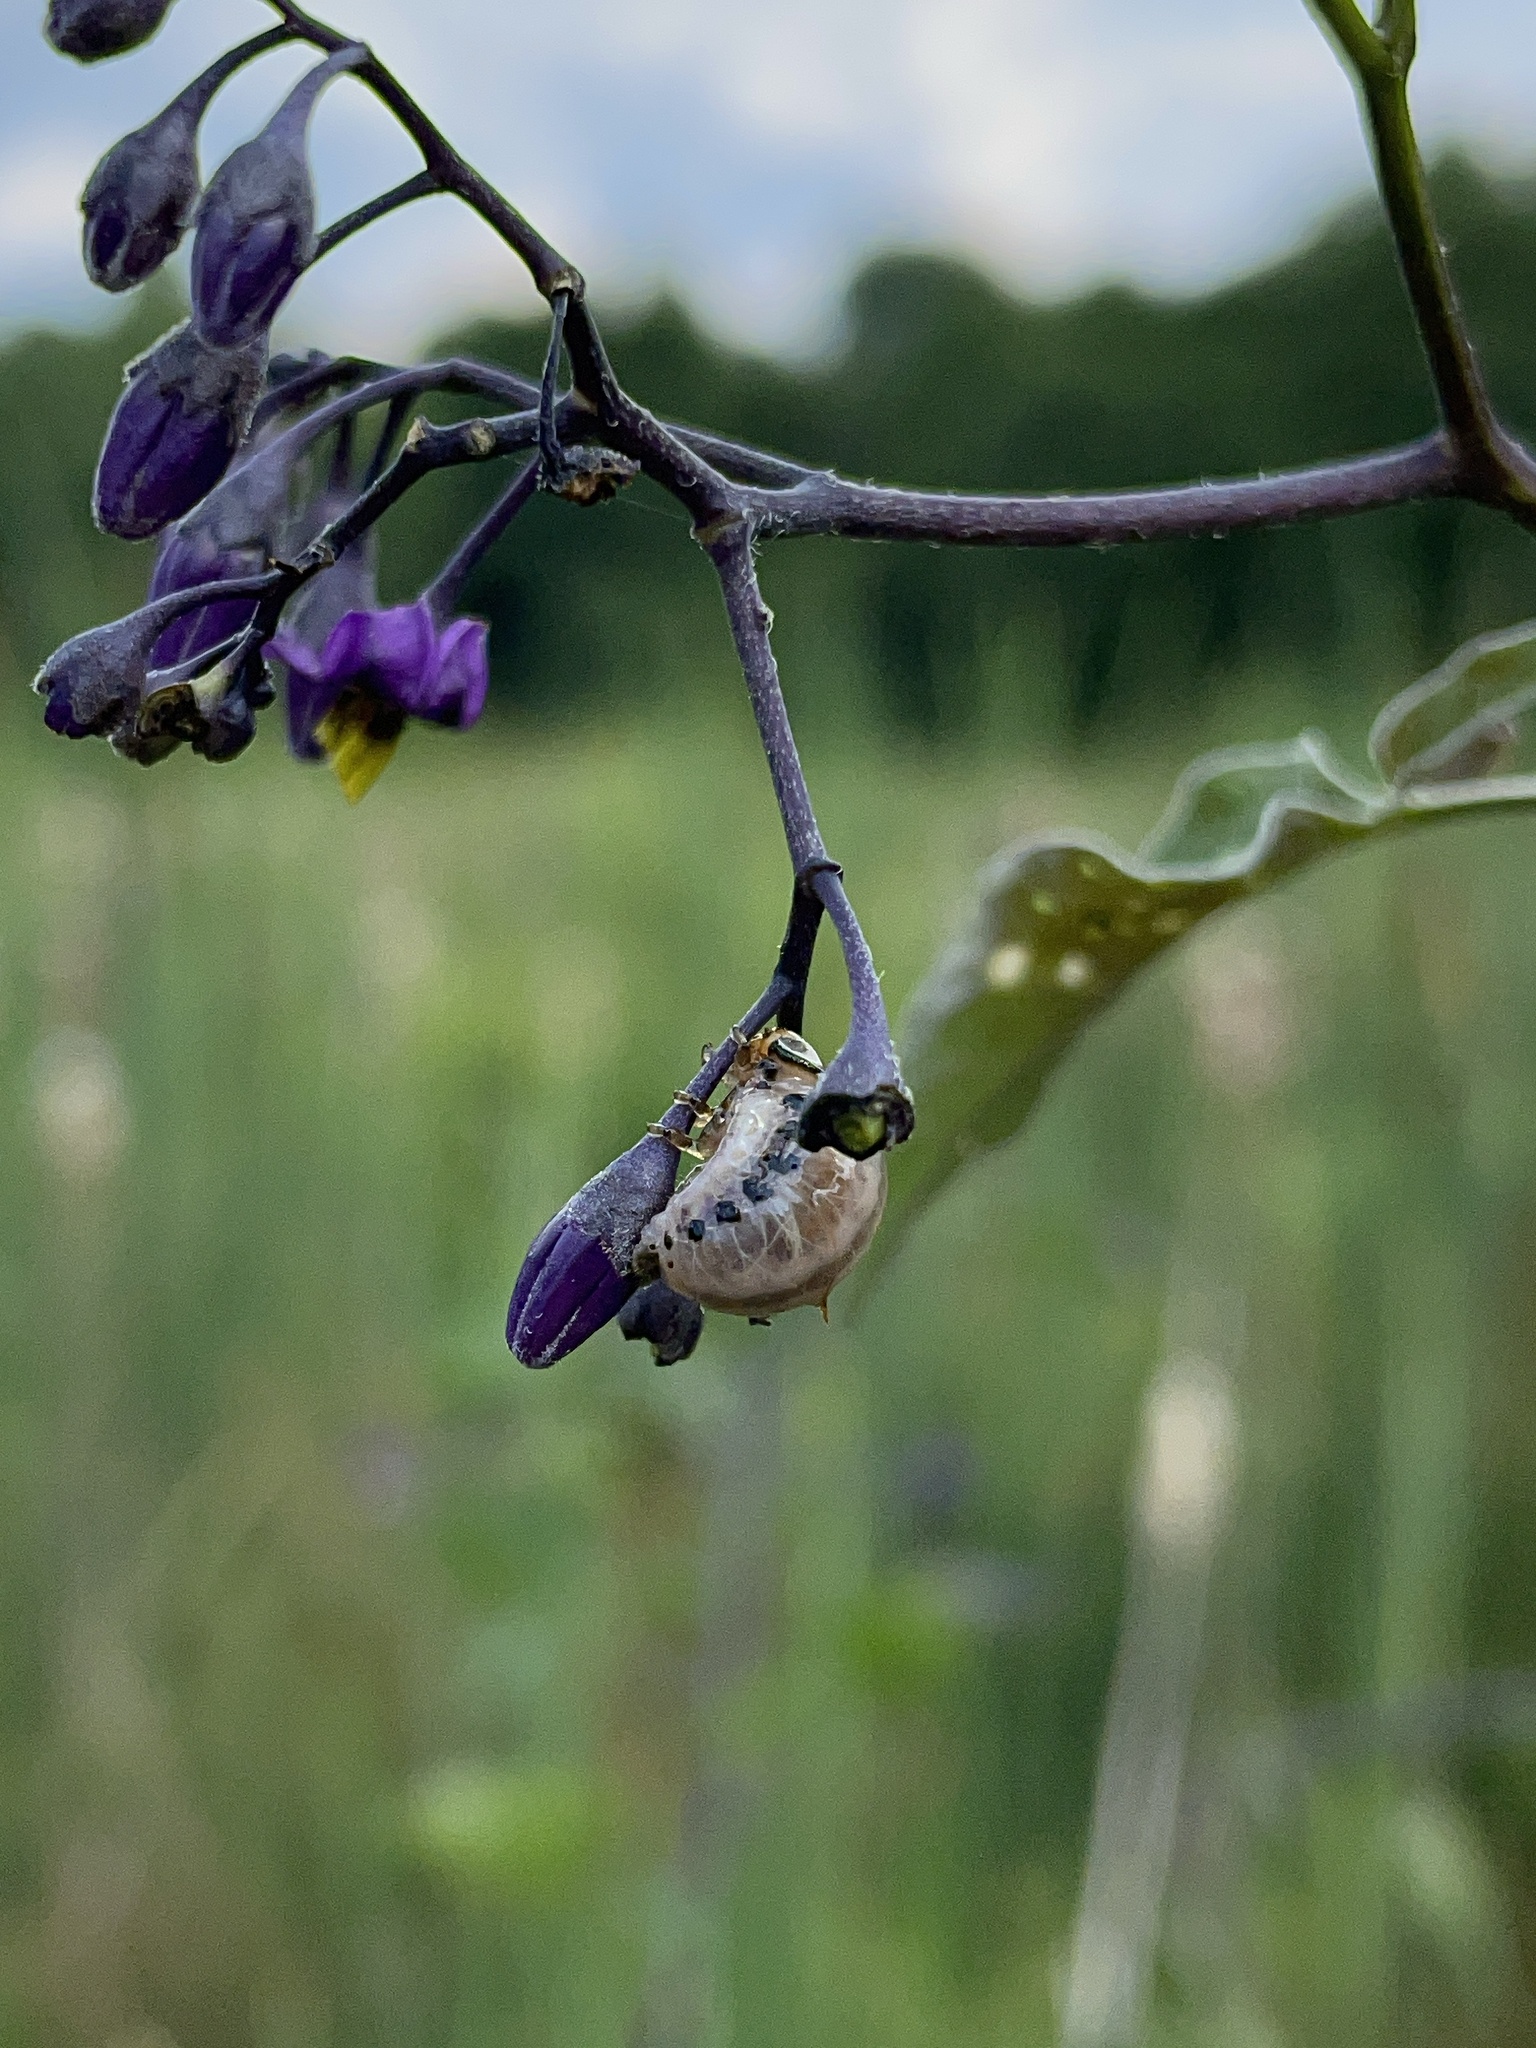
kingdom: Animalia
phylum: Arthropoda
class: Insecta
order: Coleoptera
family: Chrysomelidae
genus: Leptinotarsa
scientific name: Leptinotarsa juncta
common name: False potato beetle
